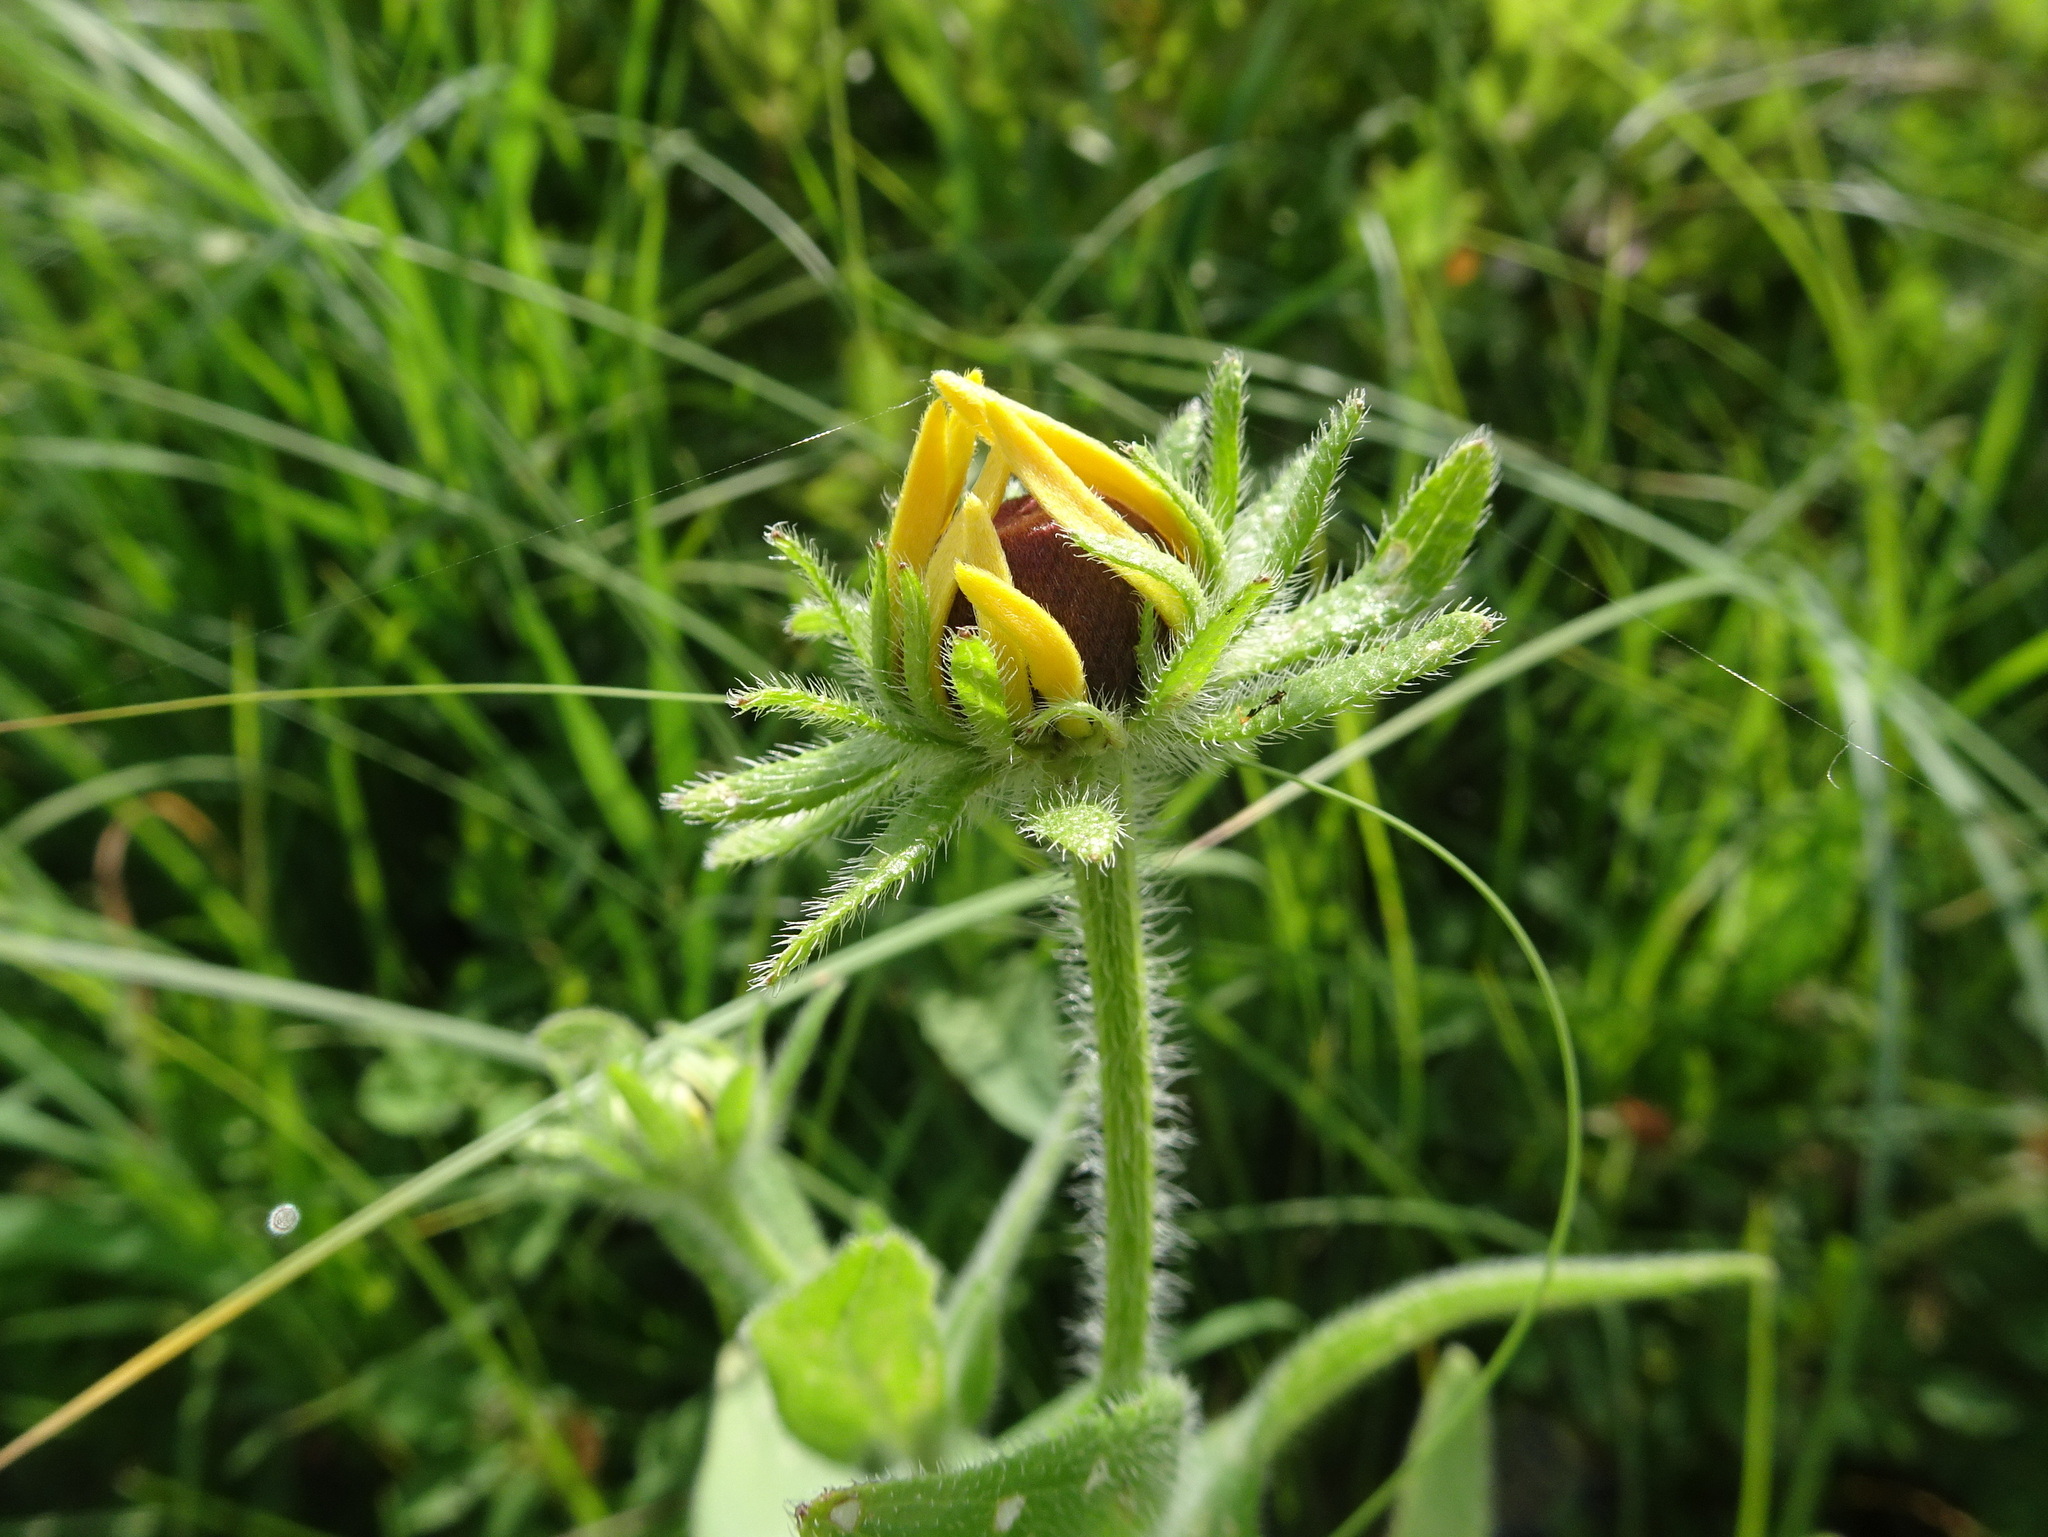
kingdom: Plantae
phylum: Tracheophyta
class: Magnoliopsida
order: Asterales
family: Asteraceae
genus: Rudbeckia
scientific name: Rudbeckia hirta
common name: Black-eyed-susan
